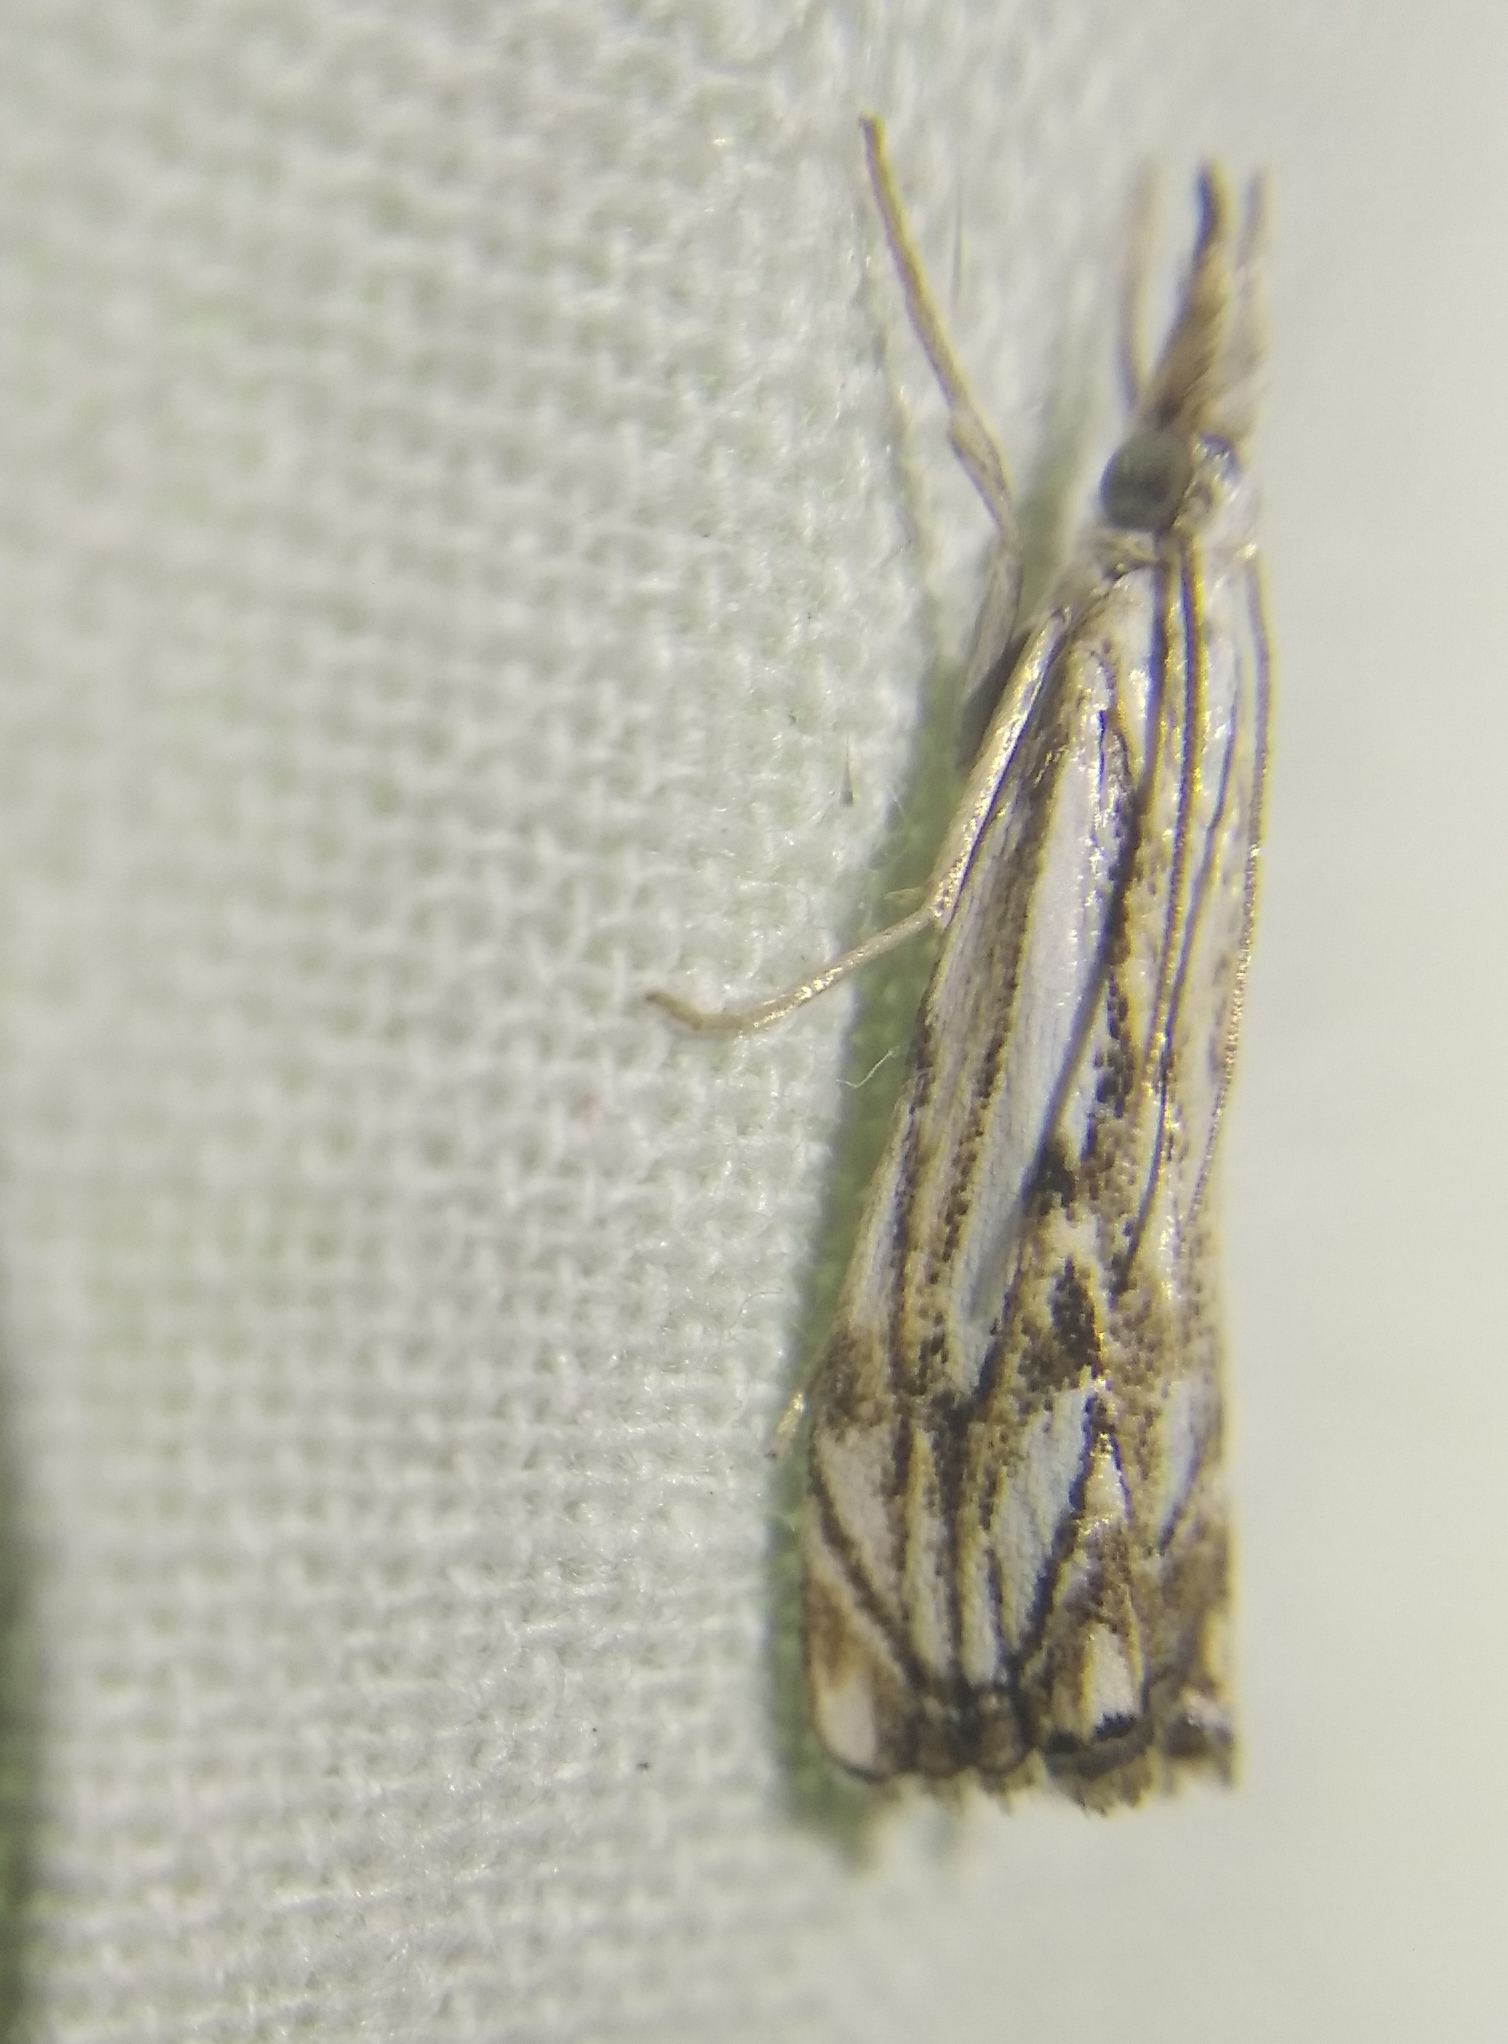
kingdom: Animalia
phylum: Arthropoda
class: Insecta
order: Lepidoptera
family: Crambidae
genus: Catoptria
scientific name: Catoptria falsella
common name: Chequered grass-veneer
